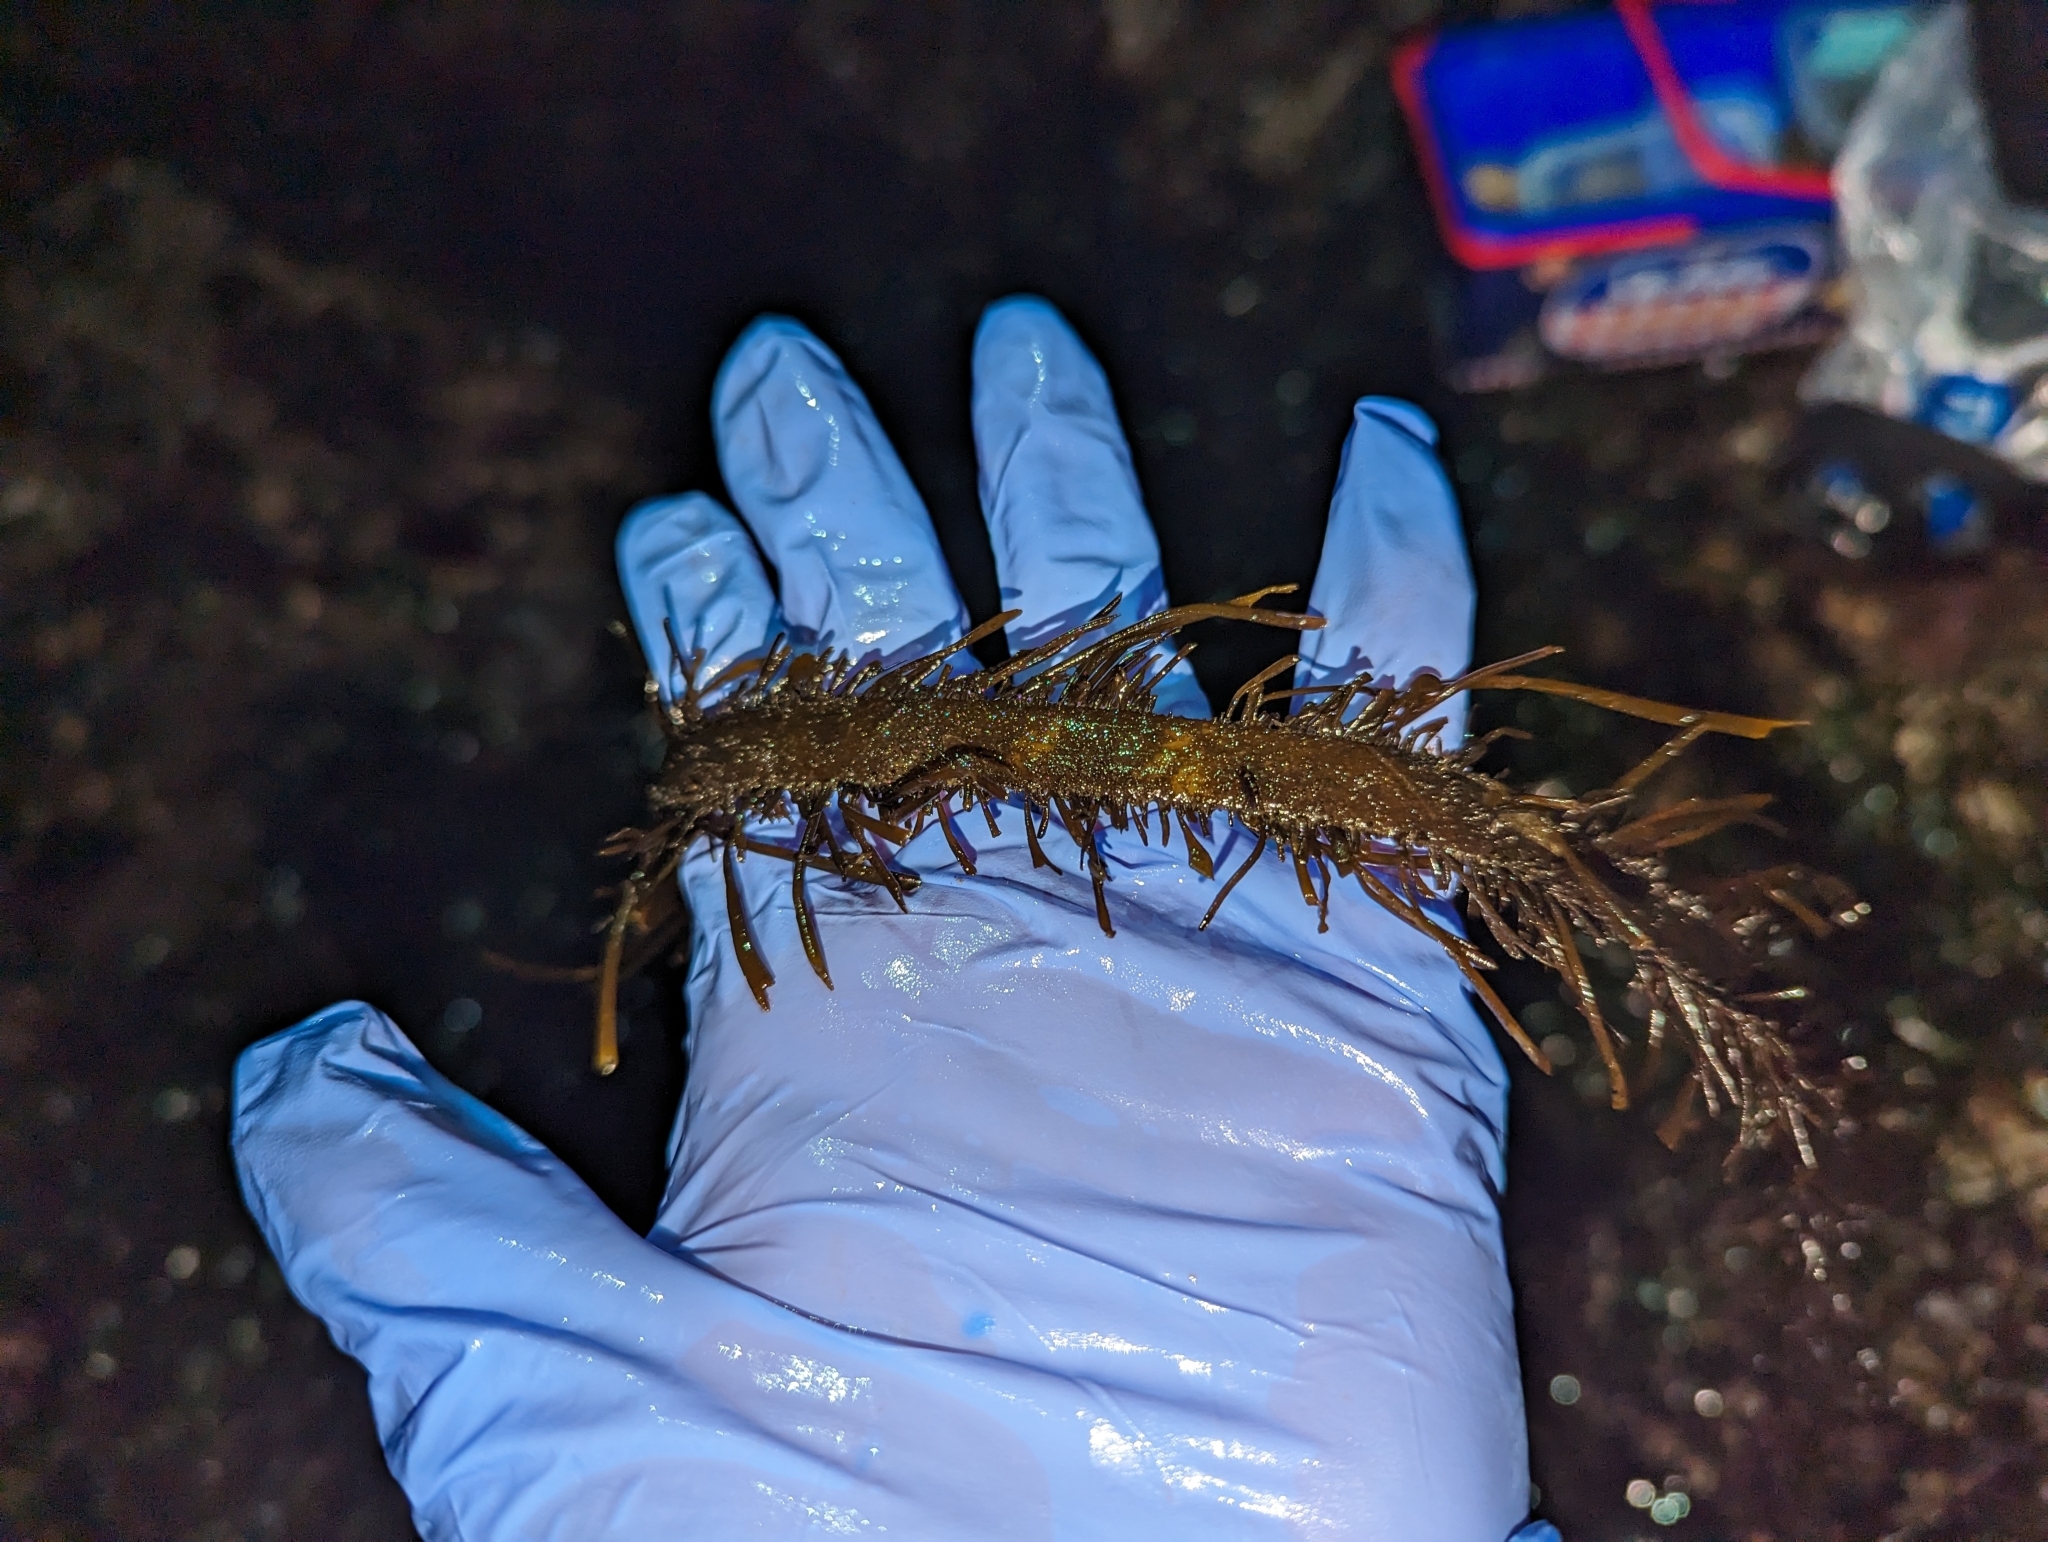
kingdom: Chromista
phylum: Ochrophyta
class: Phaeophyceae
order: Laminariales
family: Lessoniaceae
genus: Egregia
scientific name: Egregia menziesii
